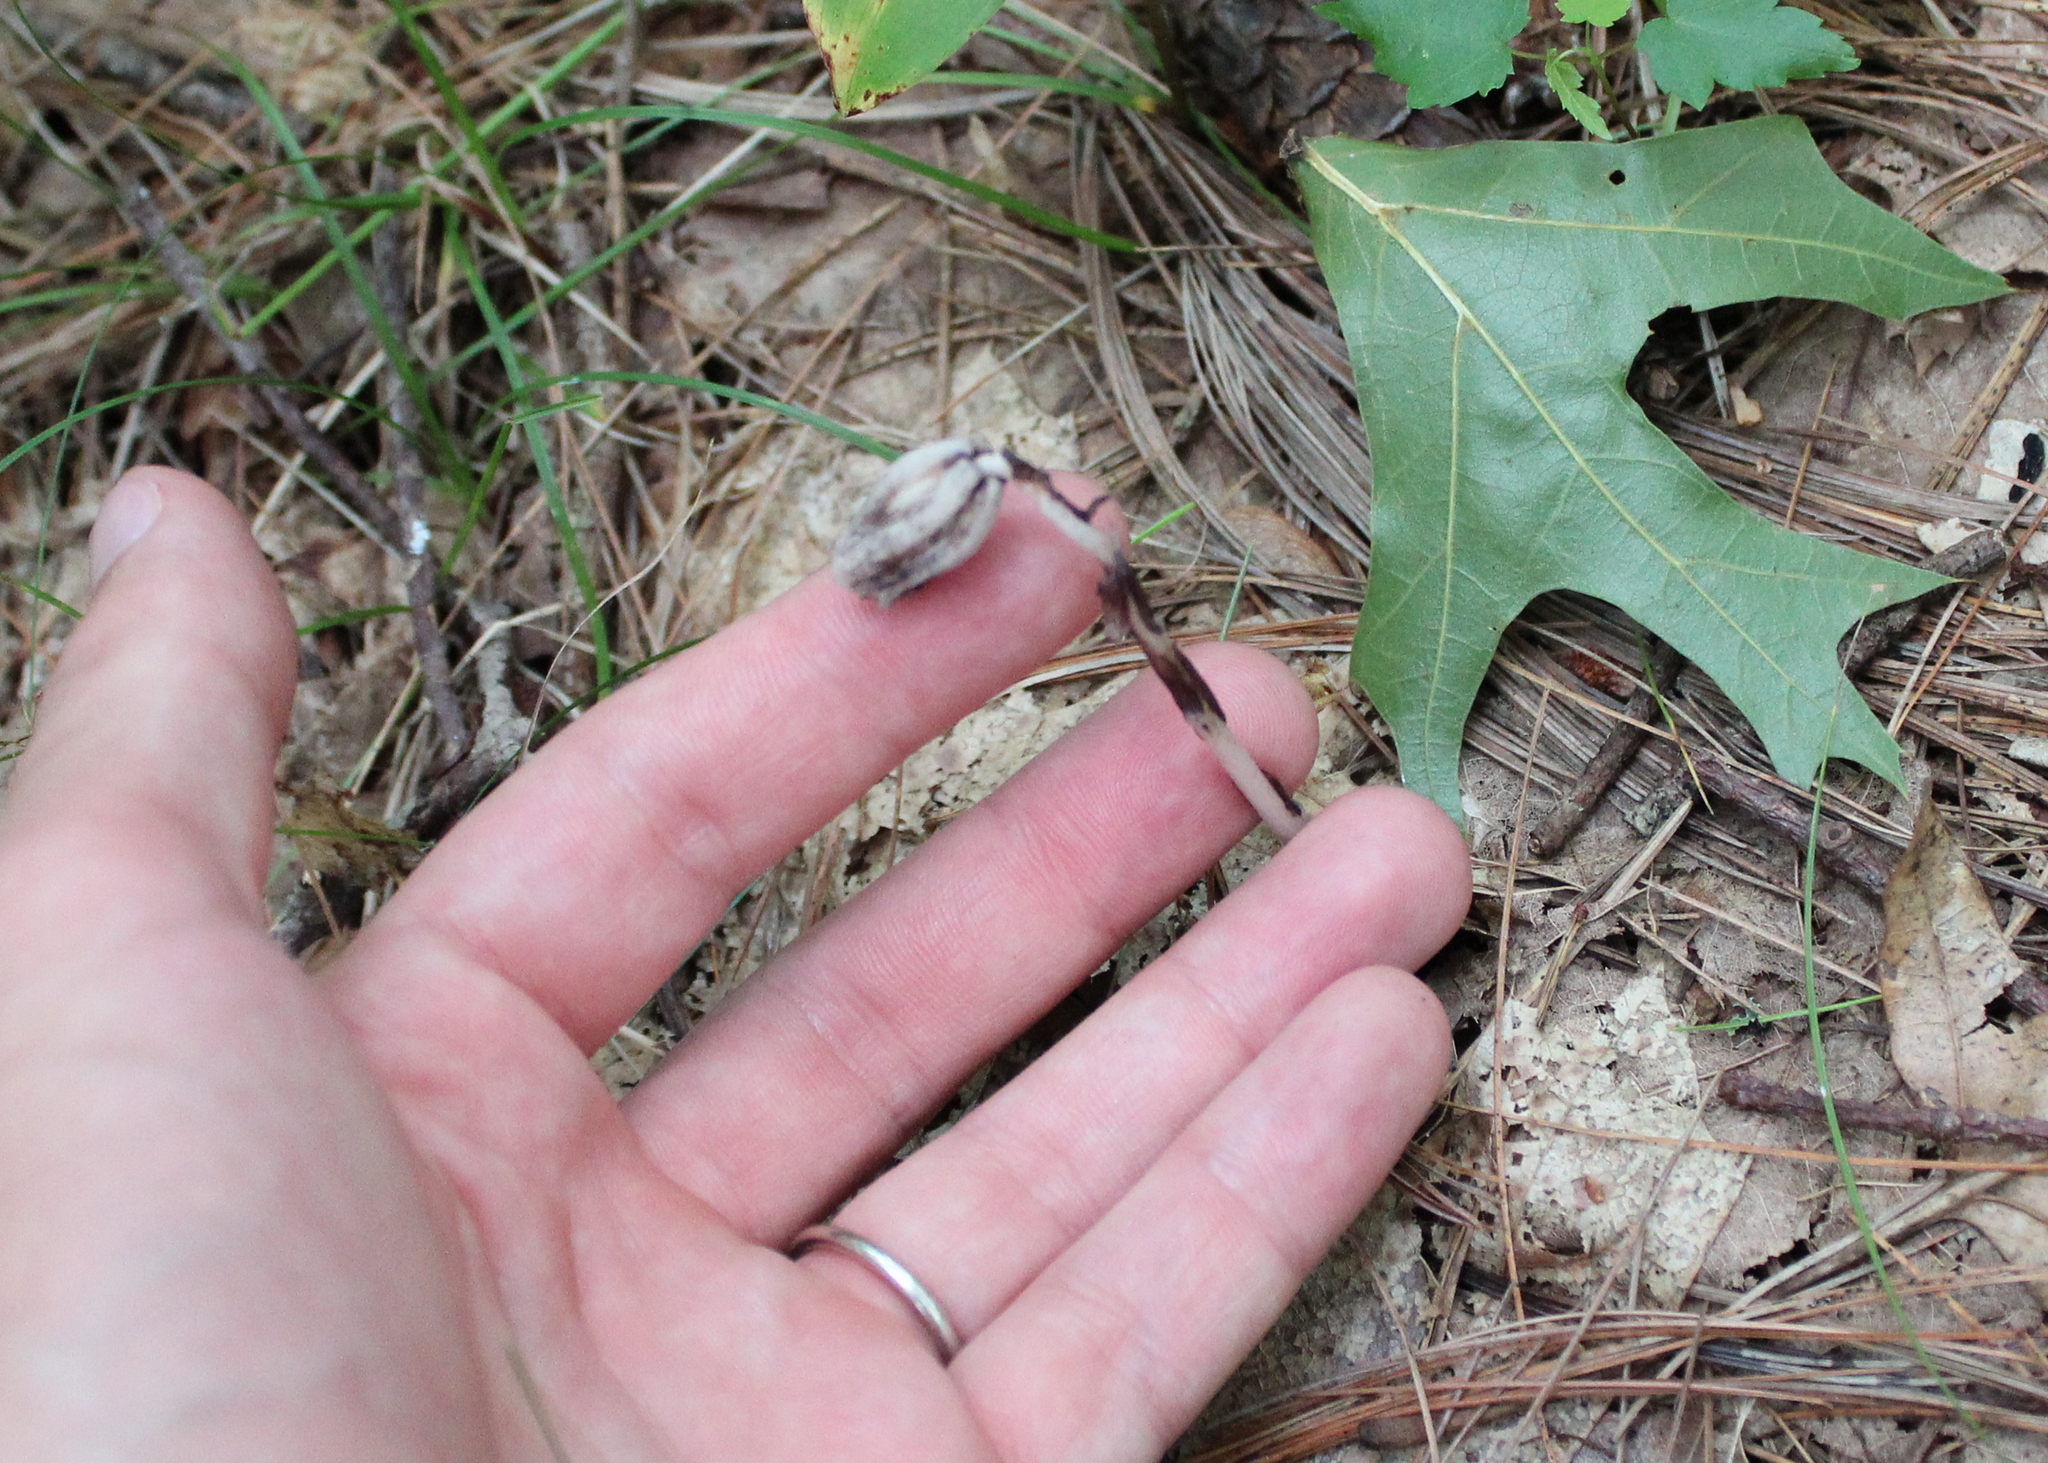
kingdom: Plantae
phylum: Tracheophyta
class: Magnoliopsida
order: Ericales
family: Ericaceae
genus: Monotropa
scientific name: Monotropa uniflora
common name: Convulsion root
